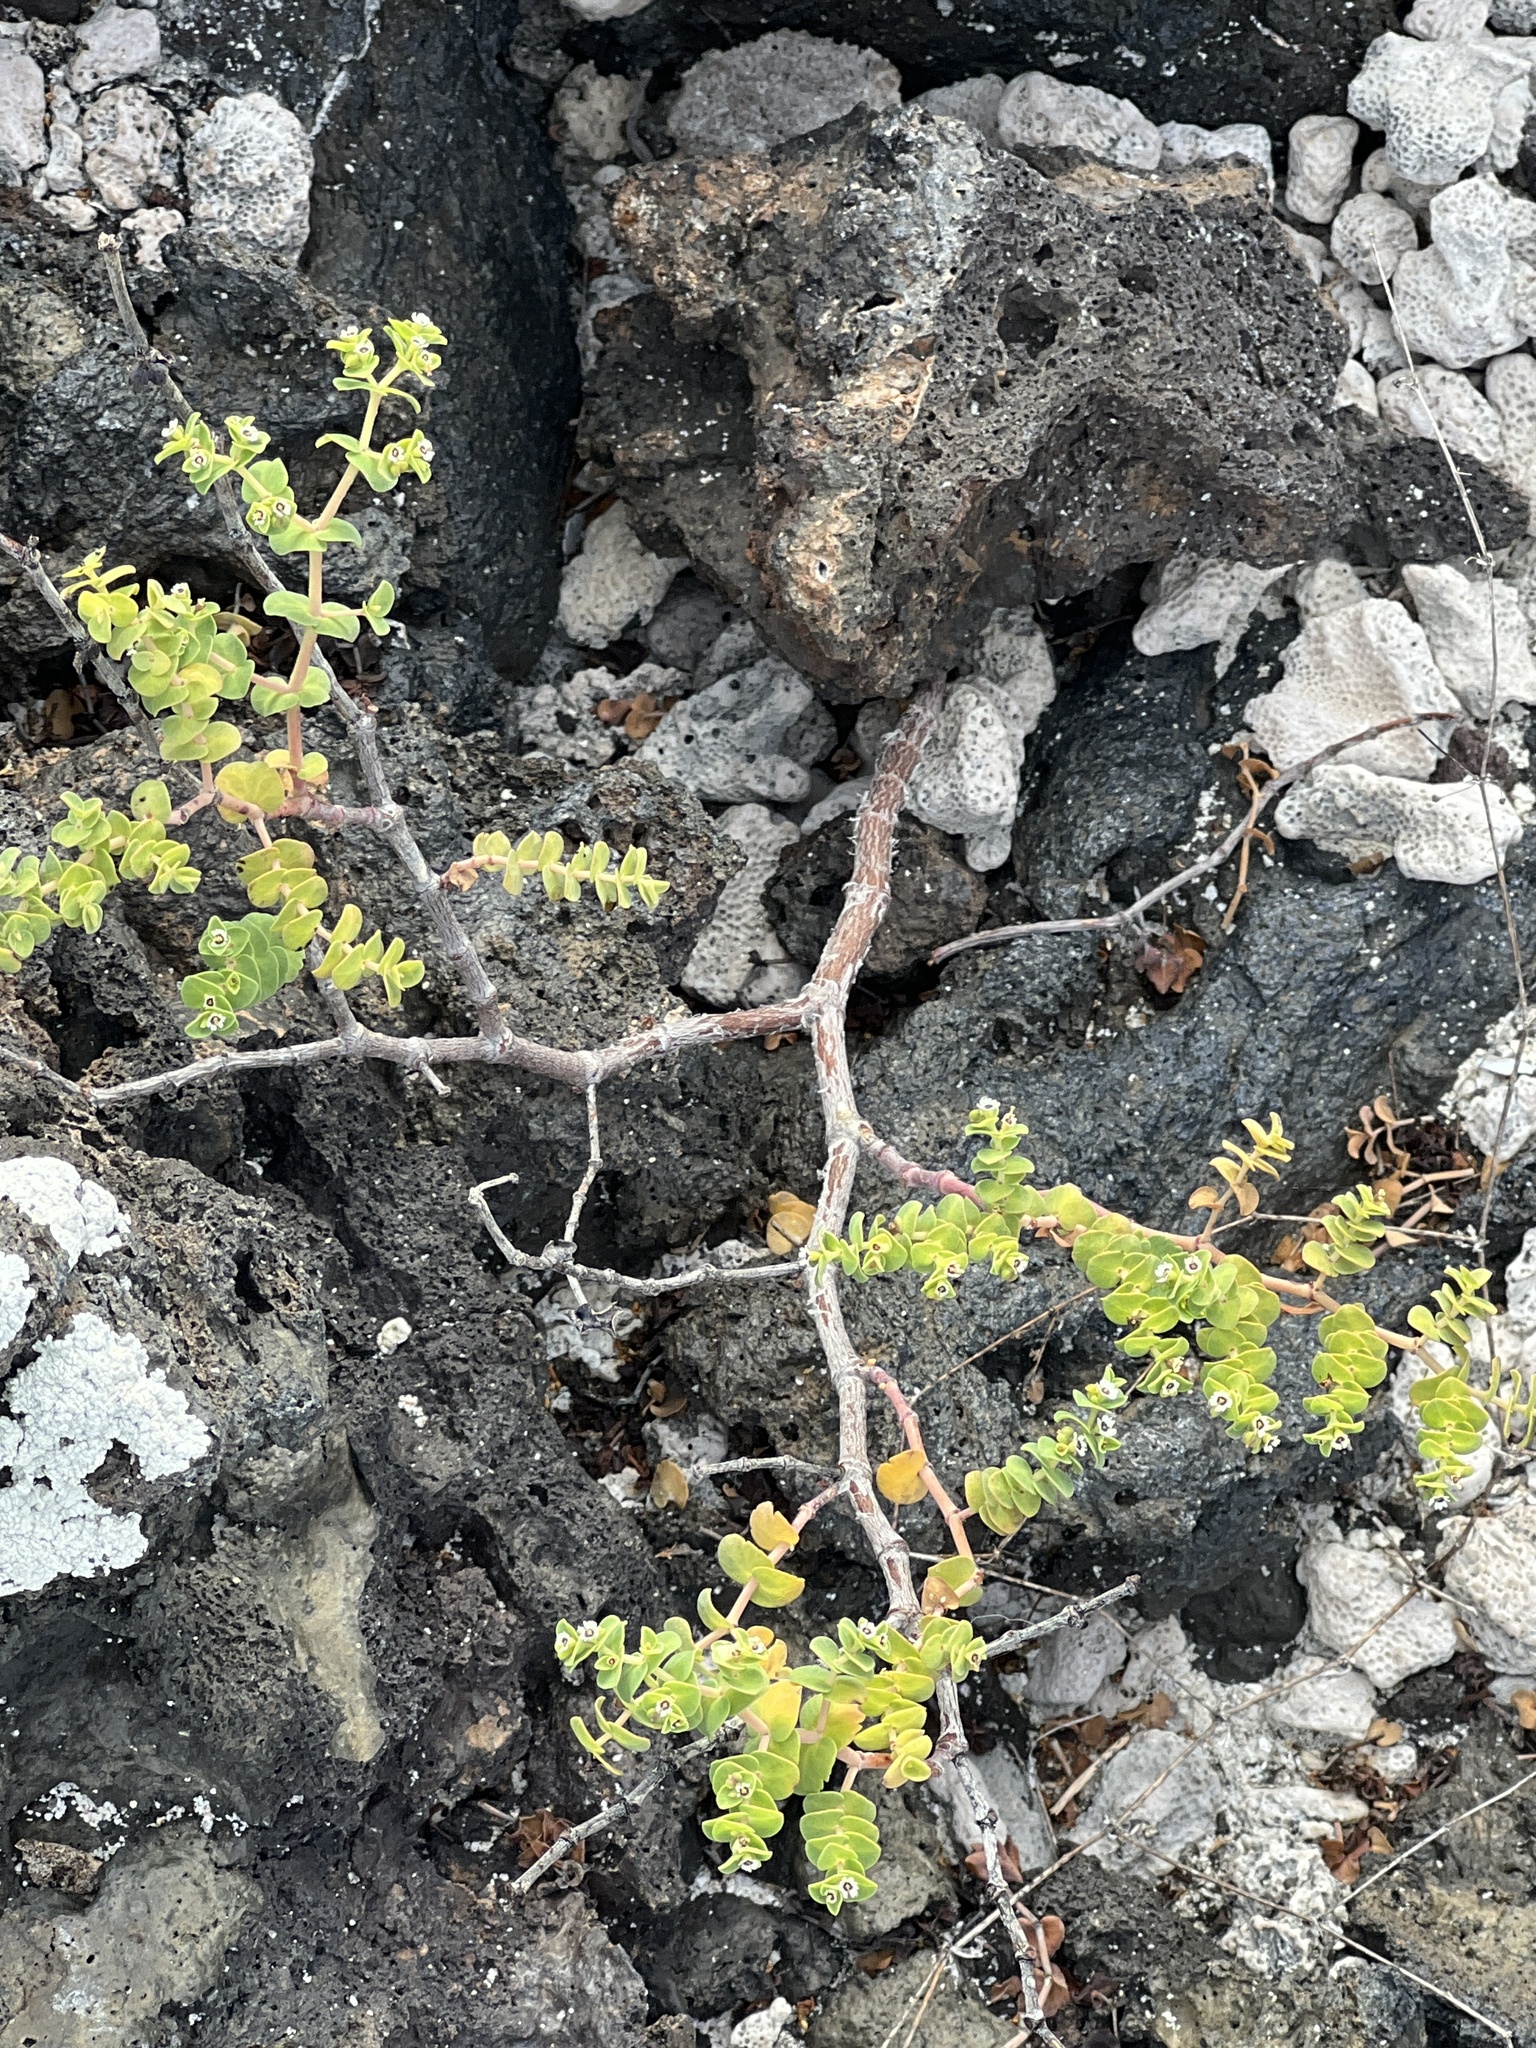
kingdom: Plantae
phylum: Tracheophyta
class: Magnoliopsida
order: Malpighiales
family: Euphorbiaceae
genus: Euphorbia
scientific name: Euphorbia amplexicaulis
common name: Chamaesyce
